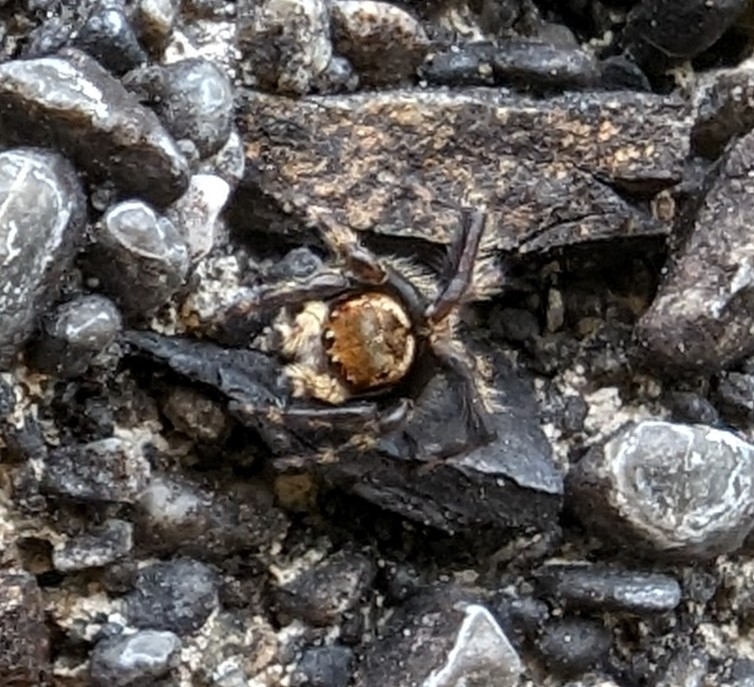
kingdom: Animalia
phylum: Arthropoda
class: Arachnida
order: Araneae
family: Salticidae
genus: Maratus
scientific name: Maratus griseus
